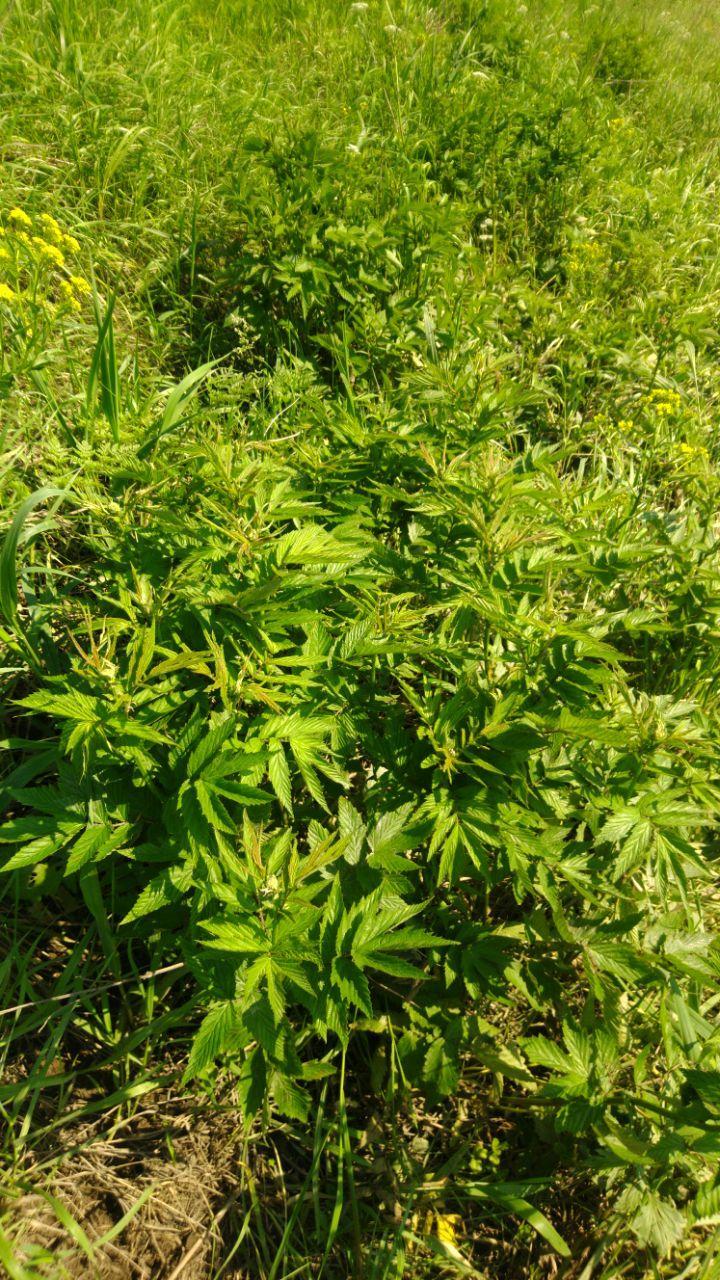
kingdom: Plantae
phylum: Tracheophyta
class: Magnoliopsida
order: Rosales
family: Rosaceae
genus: Filipendula
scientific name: Filipendula ulmaria
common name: Meadowsweet
